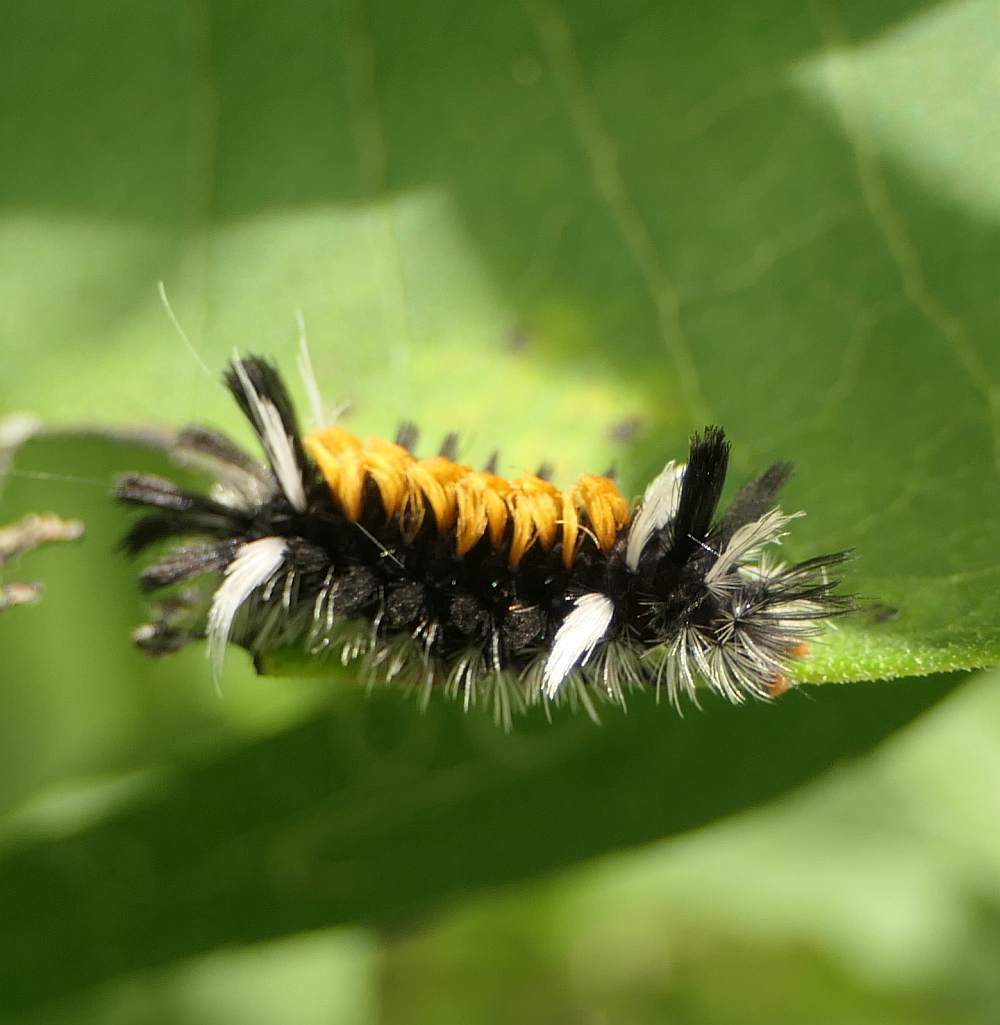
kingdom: Animalia
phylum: Arthropoda
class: Insecta
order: Lepidoptera
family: Erebidae
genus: Euchaetes
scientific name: Euchaetes egle
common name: Milkweed tussock moth
